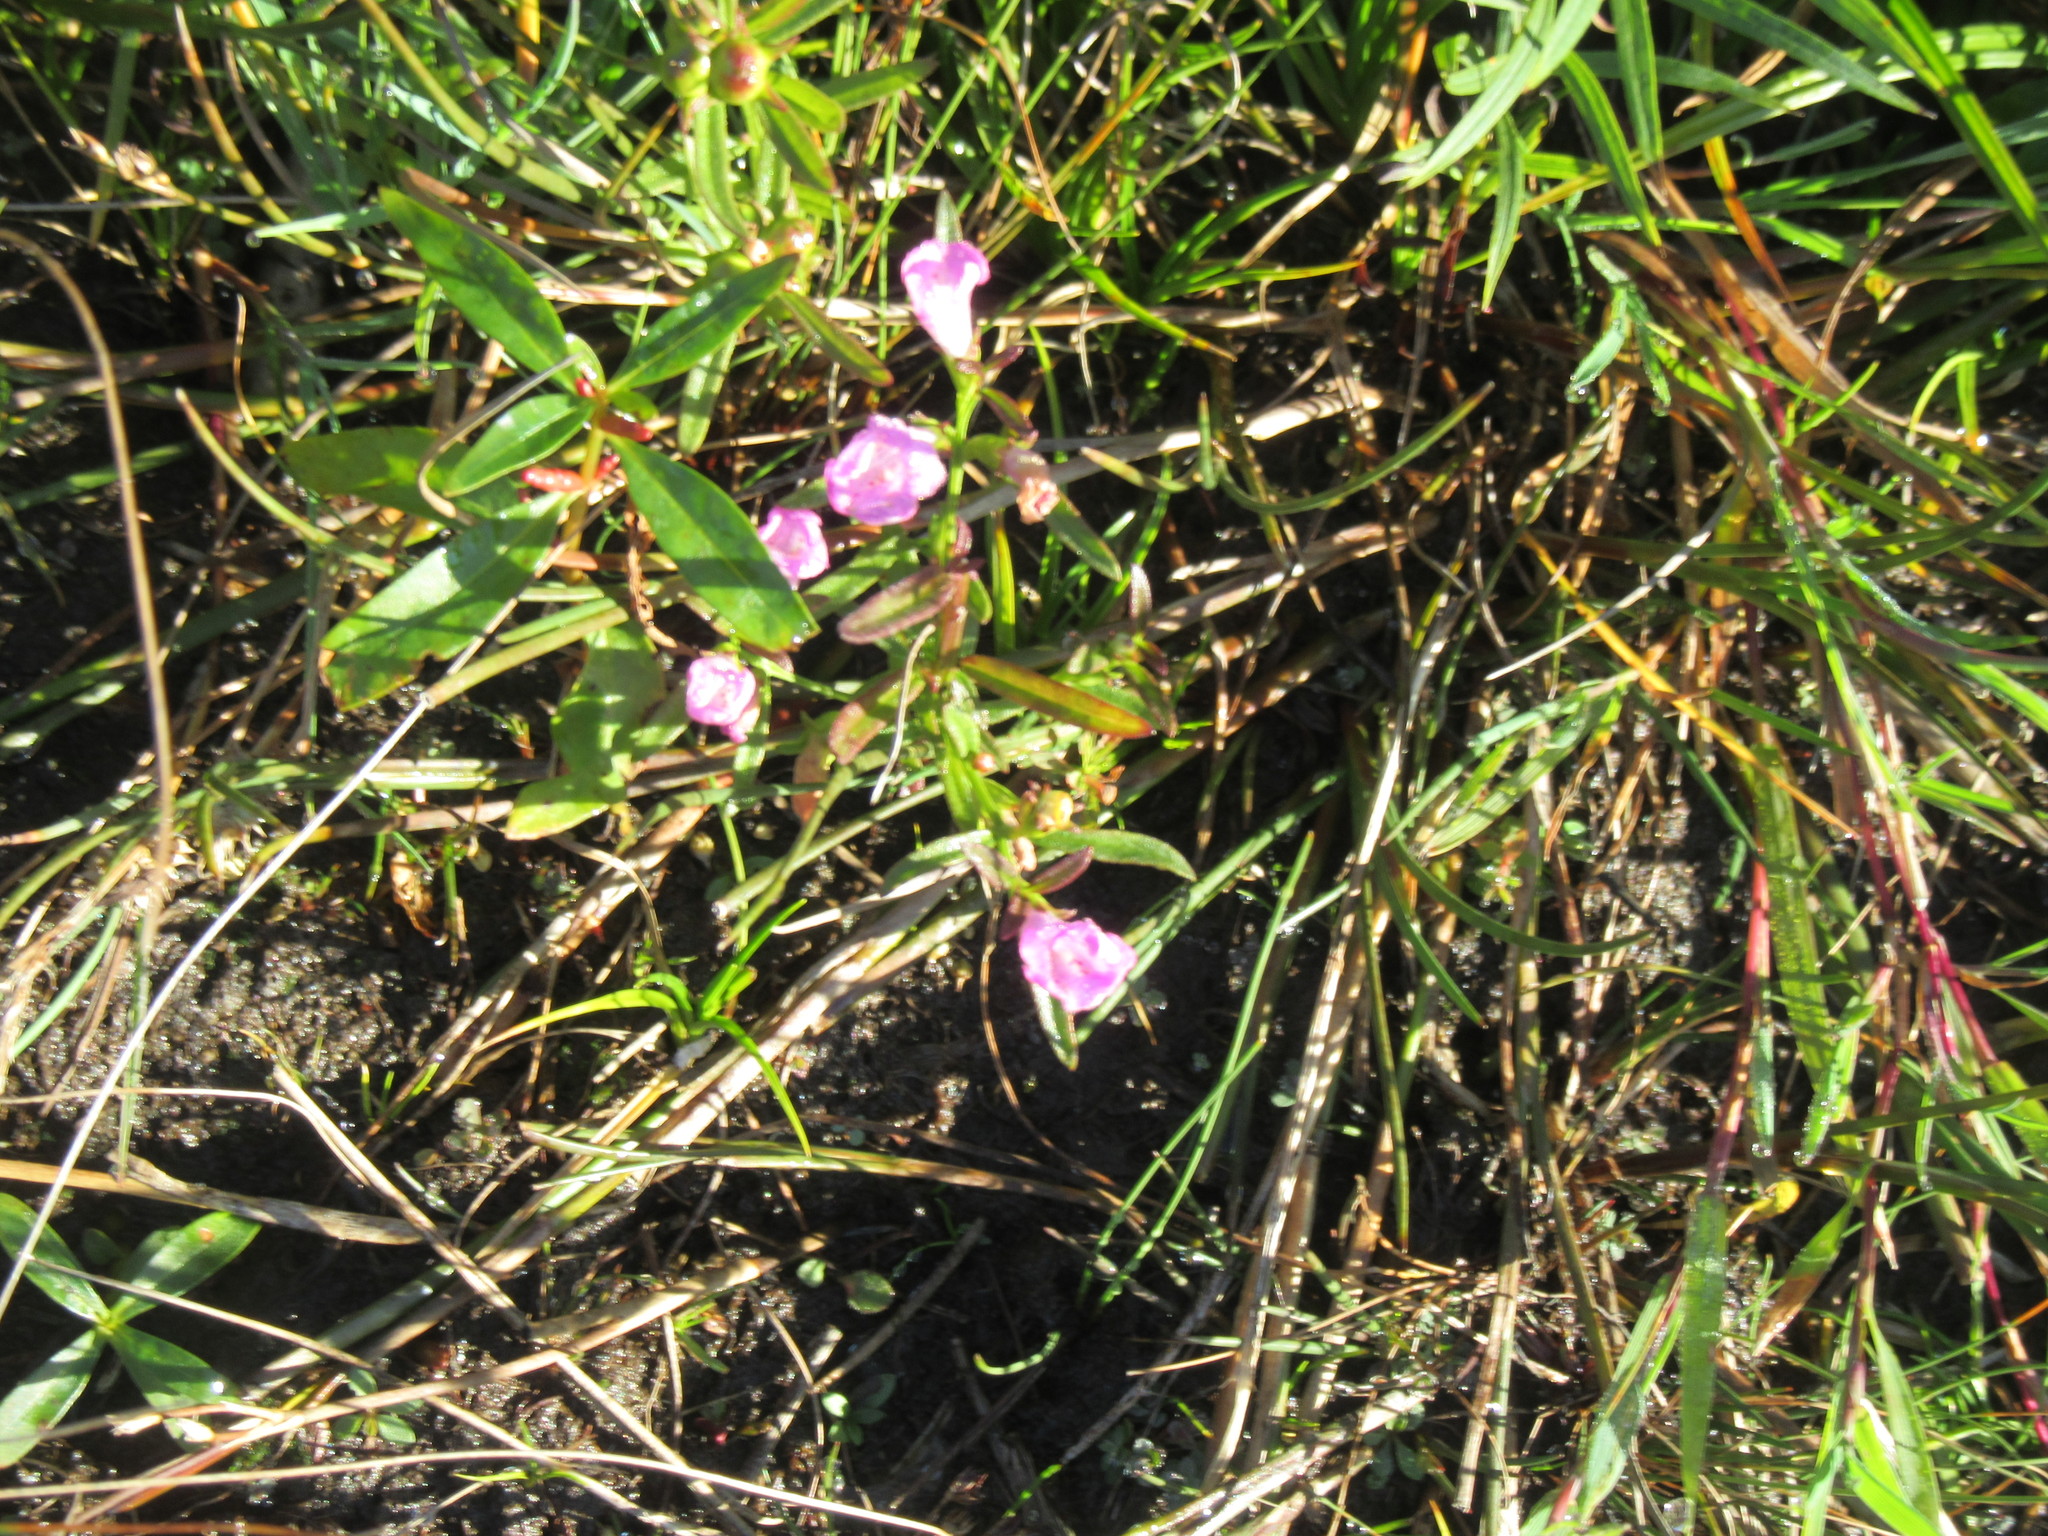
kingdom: Plantae
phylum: Tracheophyta
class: Magnoliopsida
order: Lamiales
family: Orobanchaceae
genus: Agalinis
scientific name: Agalinis neoscotica
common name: Middleton false foxglove
